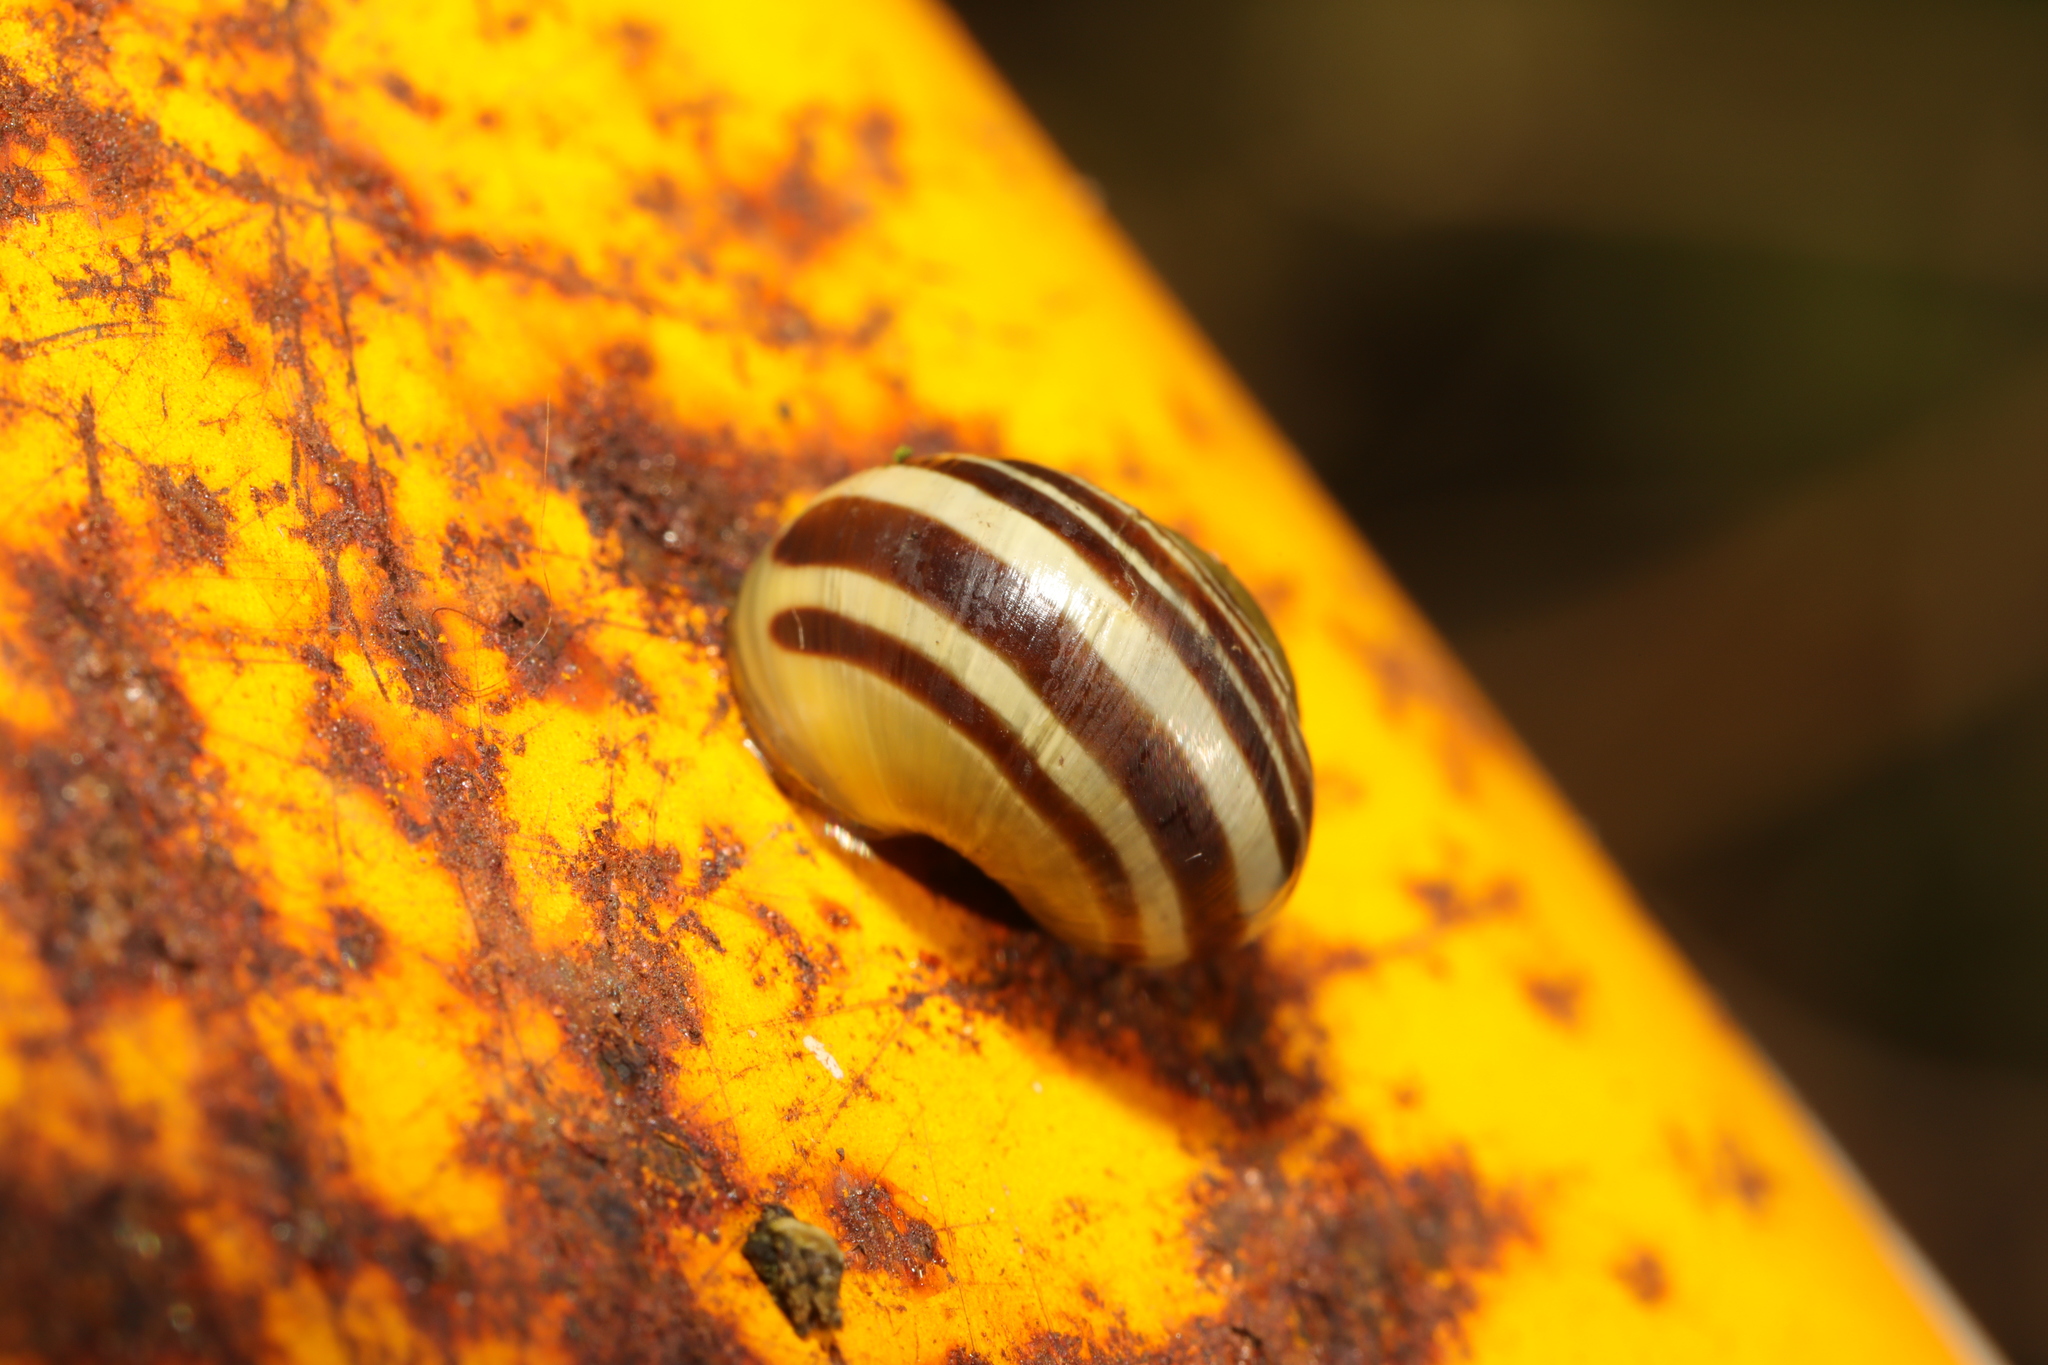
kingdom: Animalia
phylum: Mollusca
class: Gastropoda
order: Stylommatophora
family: Helicidae
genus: Cepaea
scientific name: Cepaea
